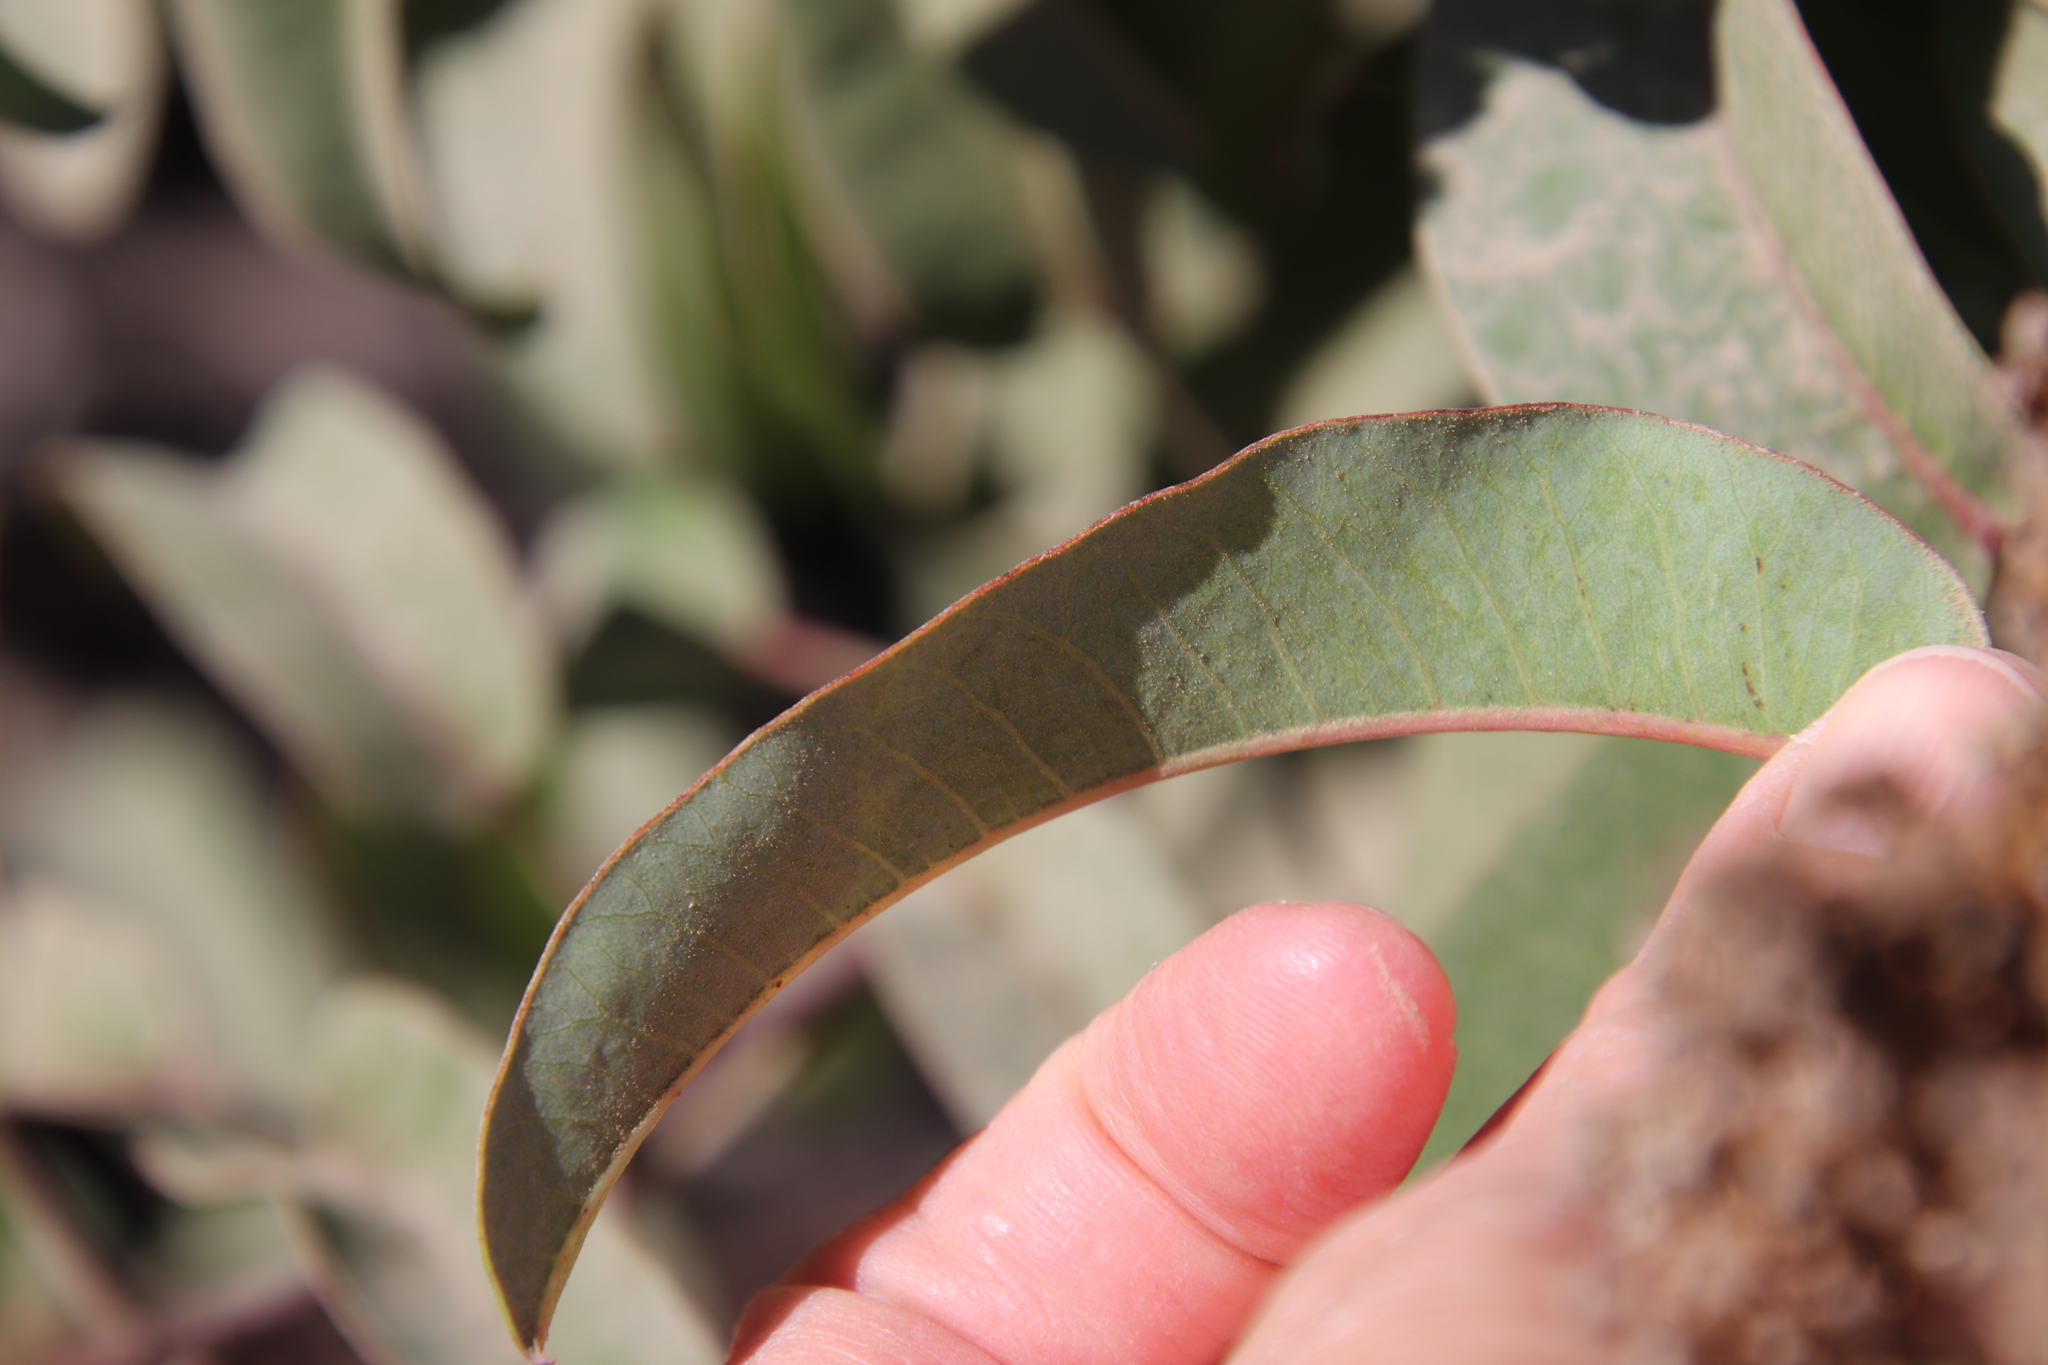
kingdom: Plantae
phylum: Tracheophyta
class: Magnoliopsida
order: Sapindales
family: Anacardiaceae
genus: Malosma
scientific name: Malosma laurina
